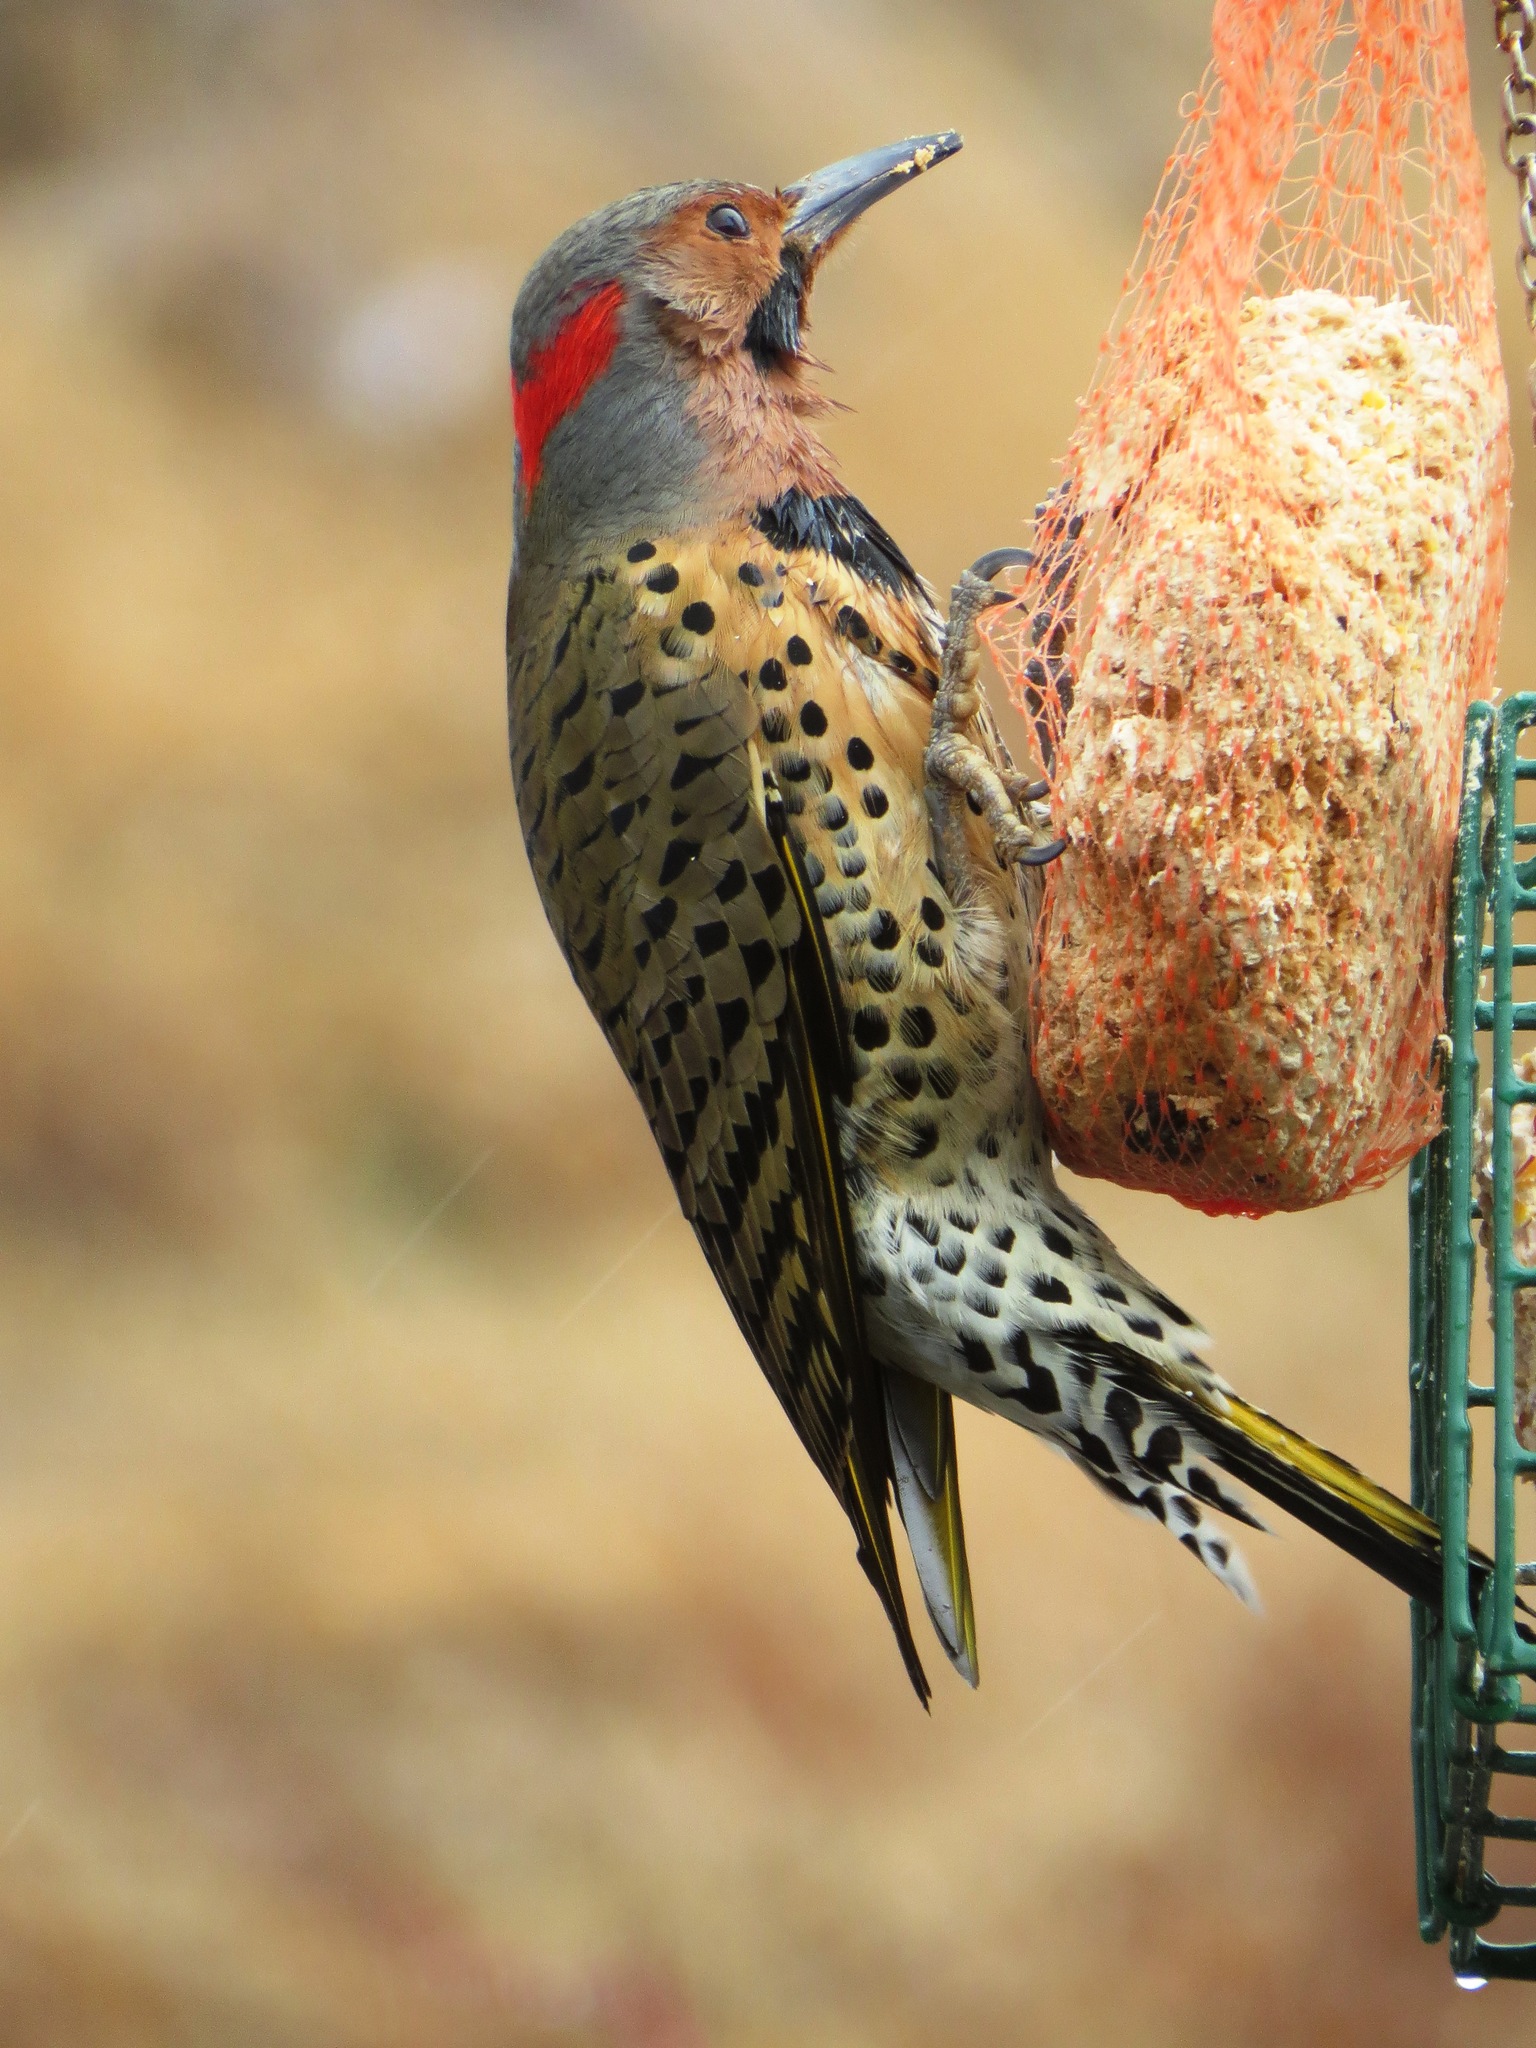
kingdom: Animalia
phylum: Chordata
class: Aves
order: Piciformes
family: Picidae
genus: Colaptes
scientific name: Colaptes auratus
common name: Northern flicker
